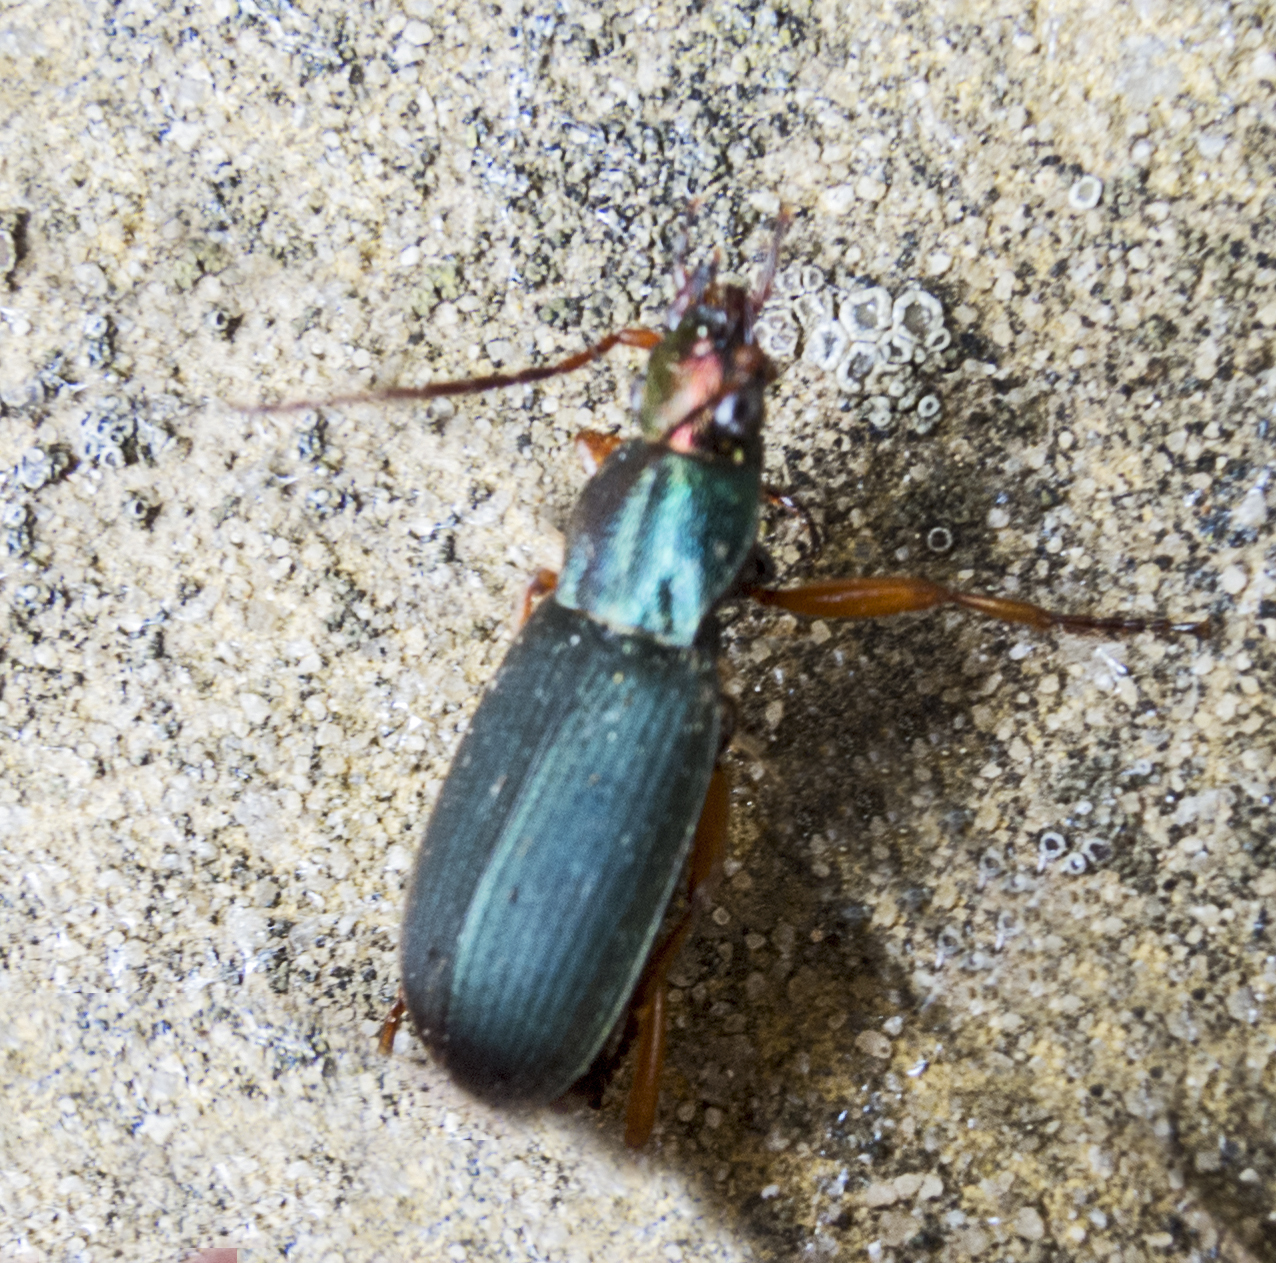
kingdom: Animalia
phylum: Arthropoda
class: Insecta
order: Coleoptera
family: Carabidae
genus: Chlaenius
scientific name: Chlaenius aeneocephalus
